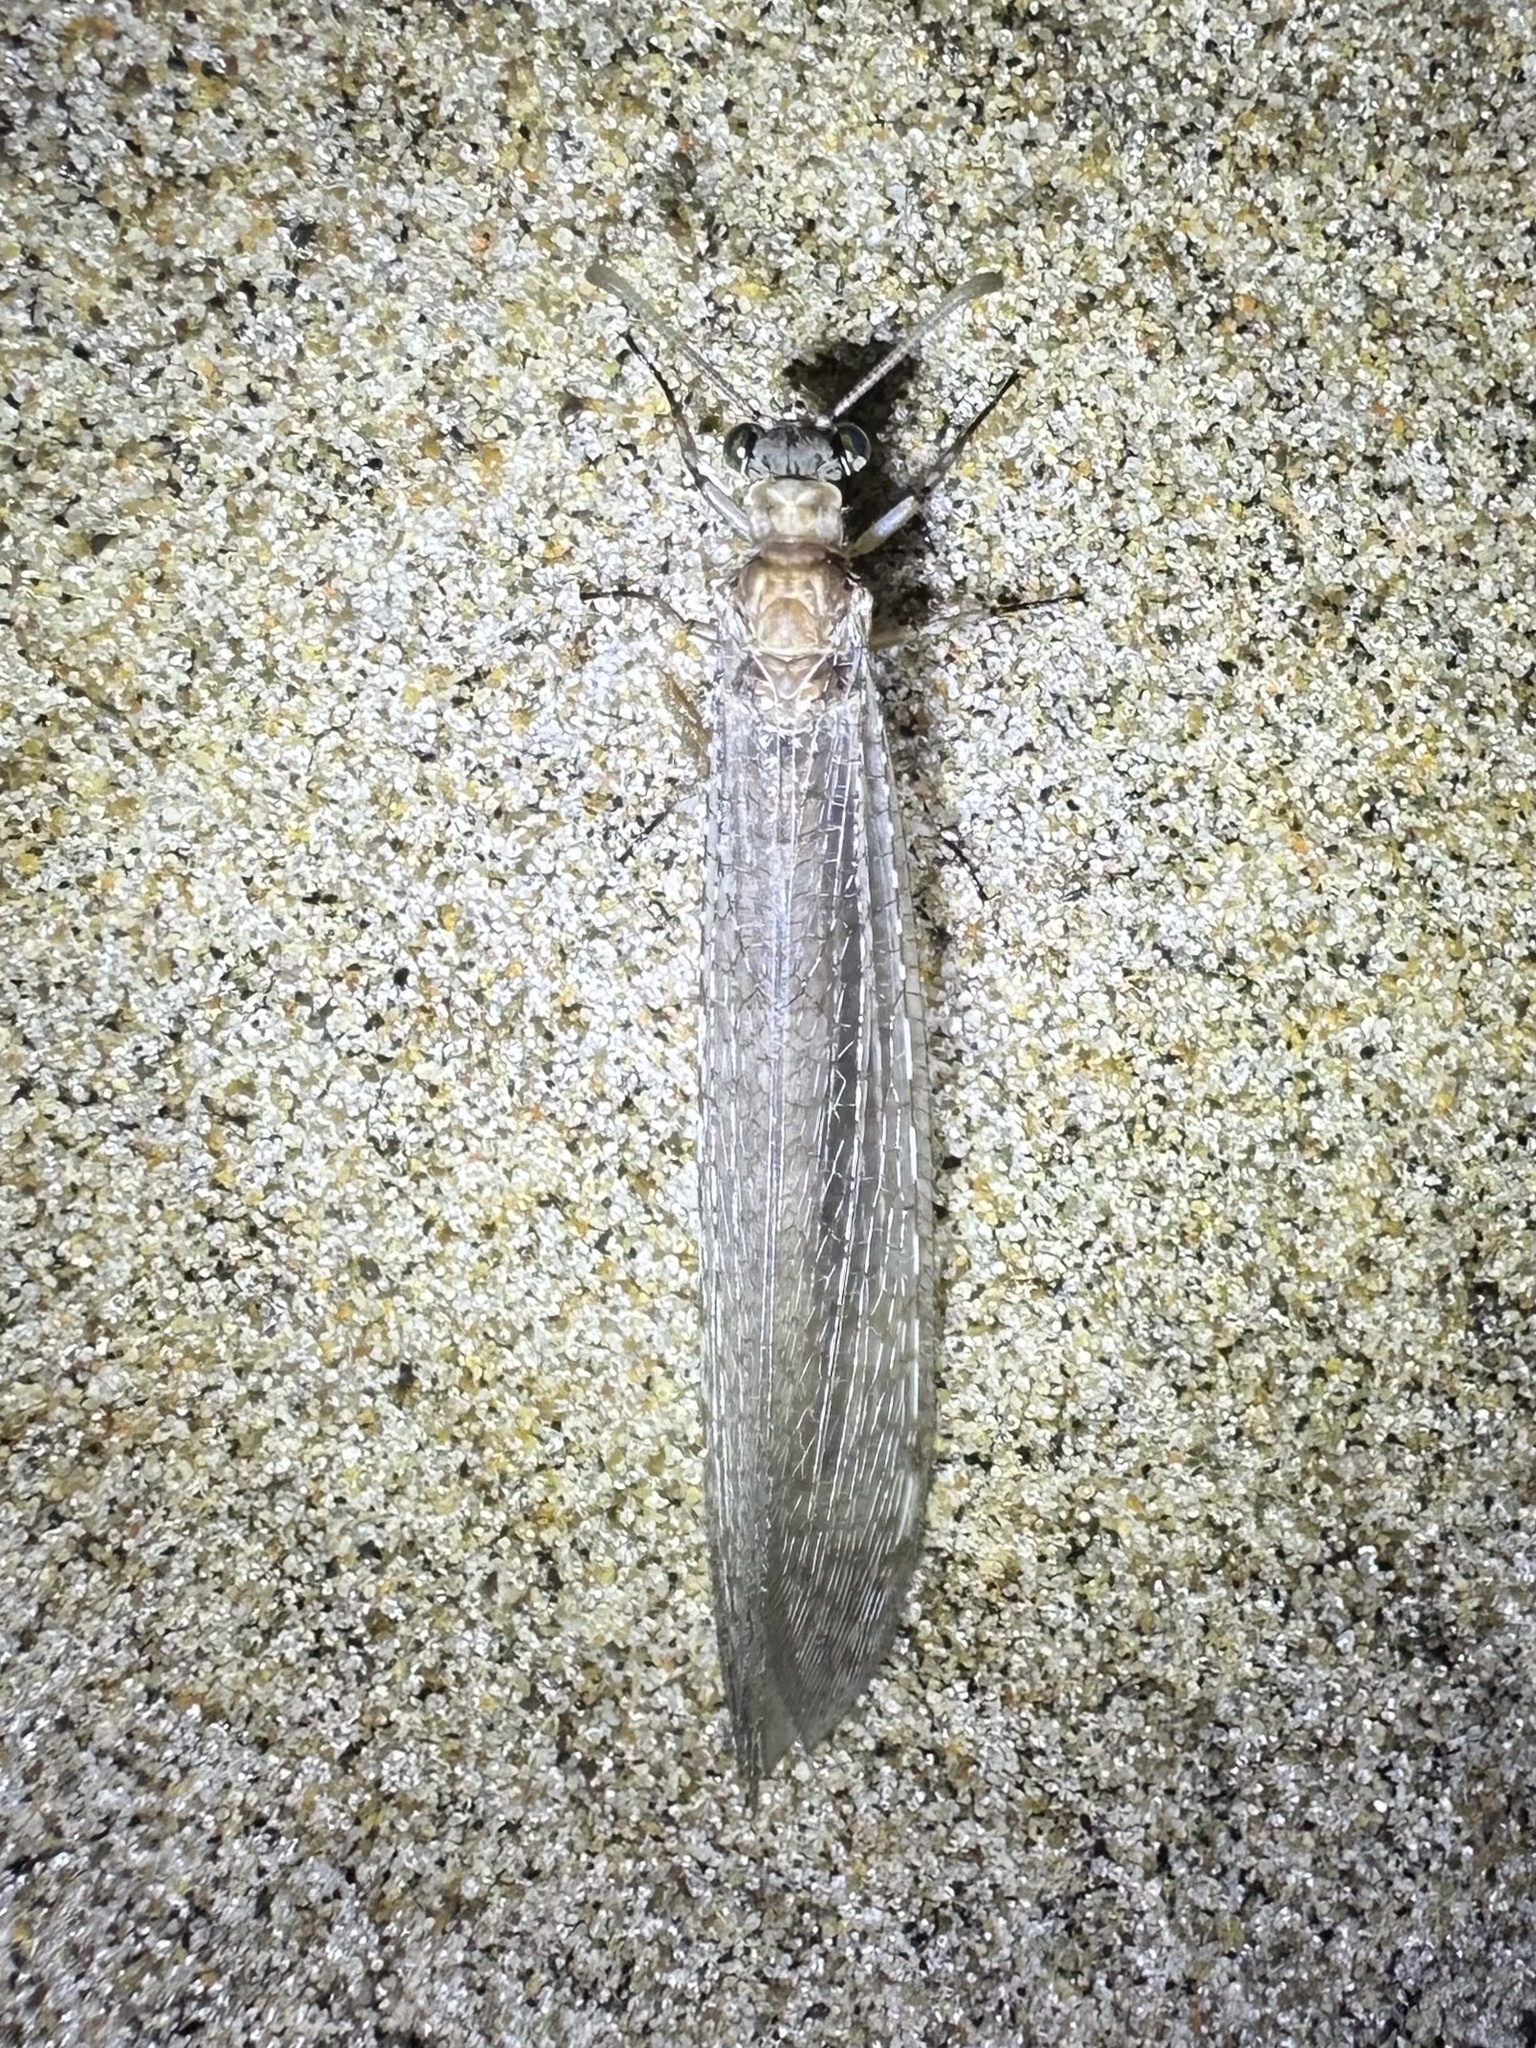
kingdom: Animalia
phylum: Arthropoda
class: Insecta
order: Neuroptera
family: Myrmeleontidae
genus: Myrmeleon
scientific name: Myrmeleon immaculatus
